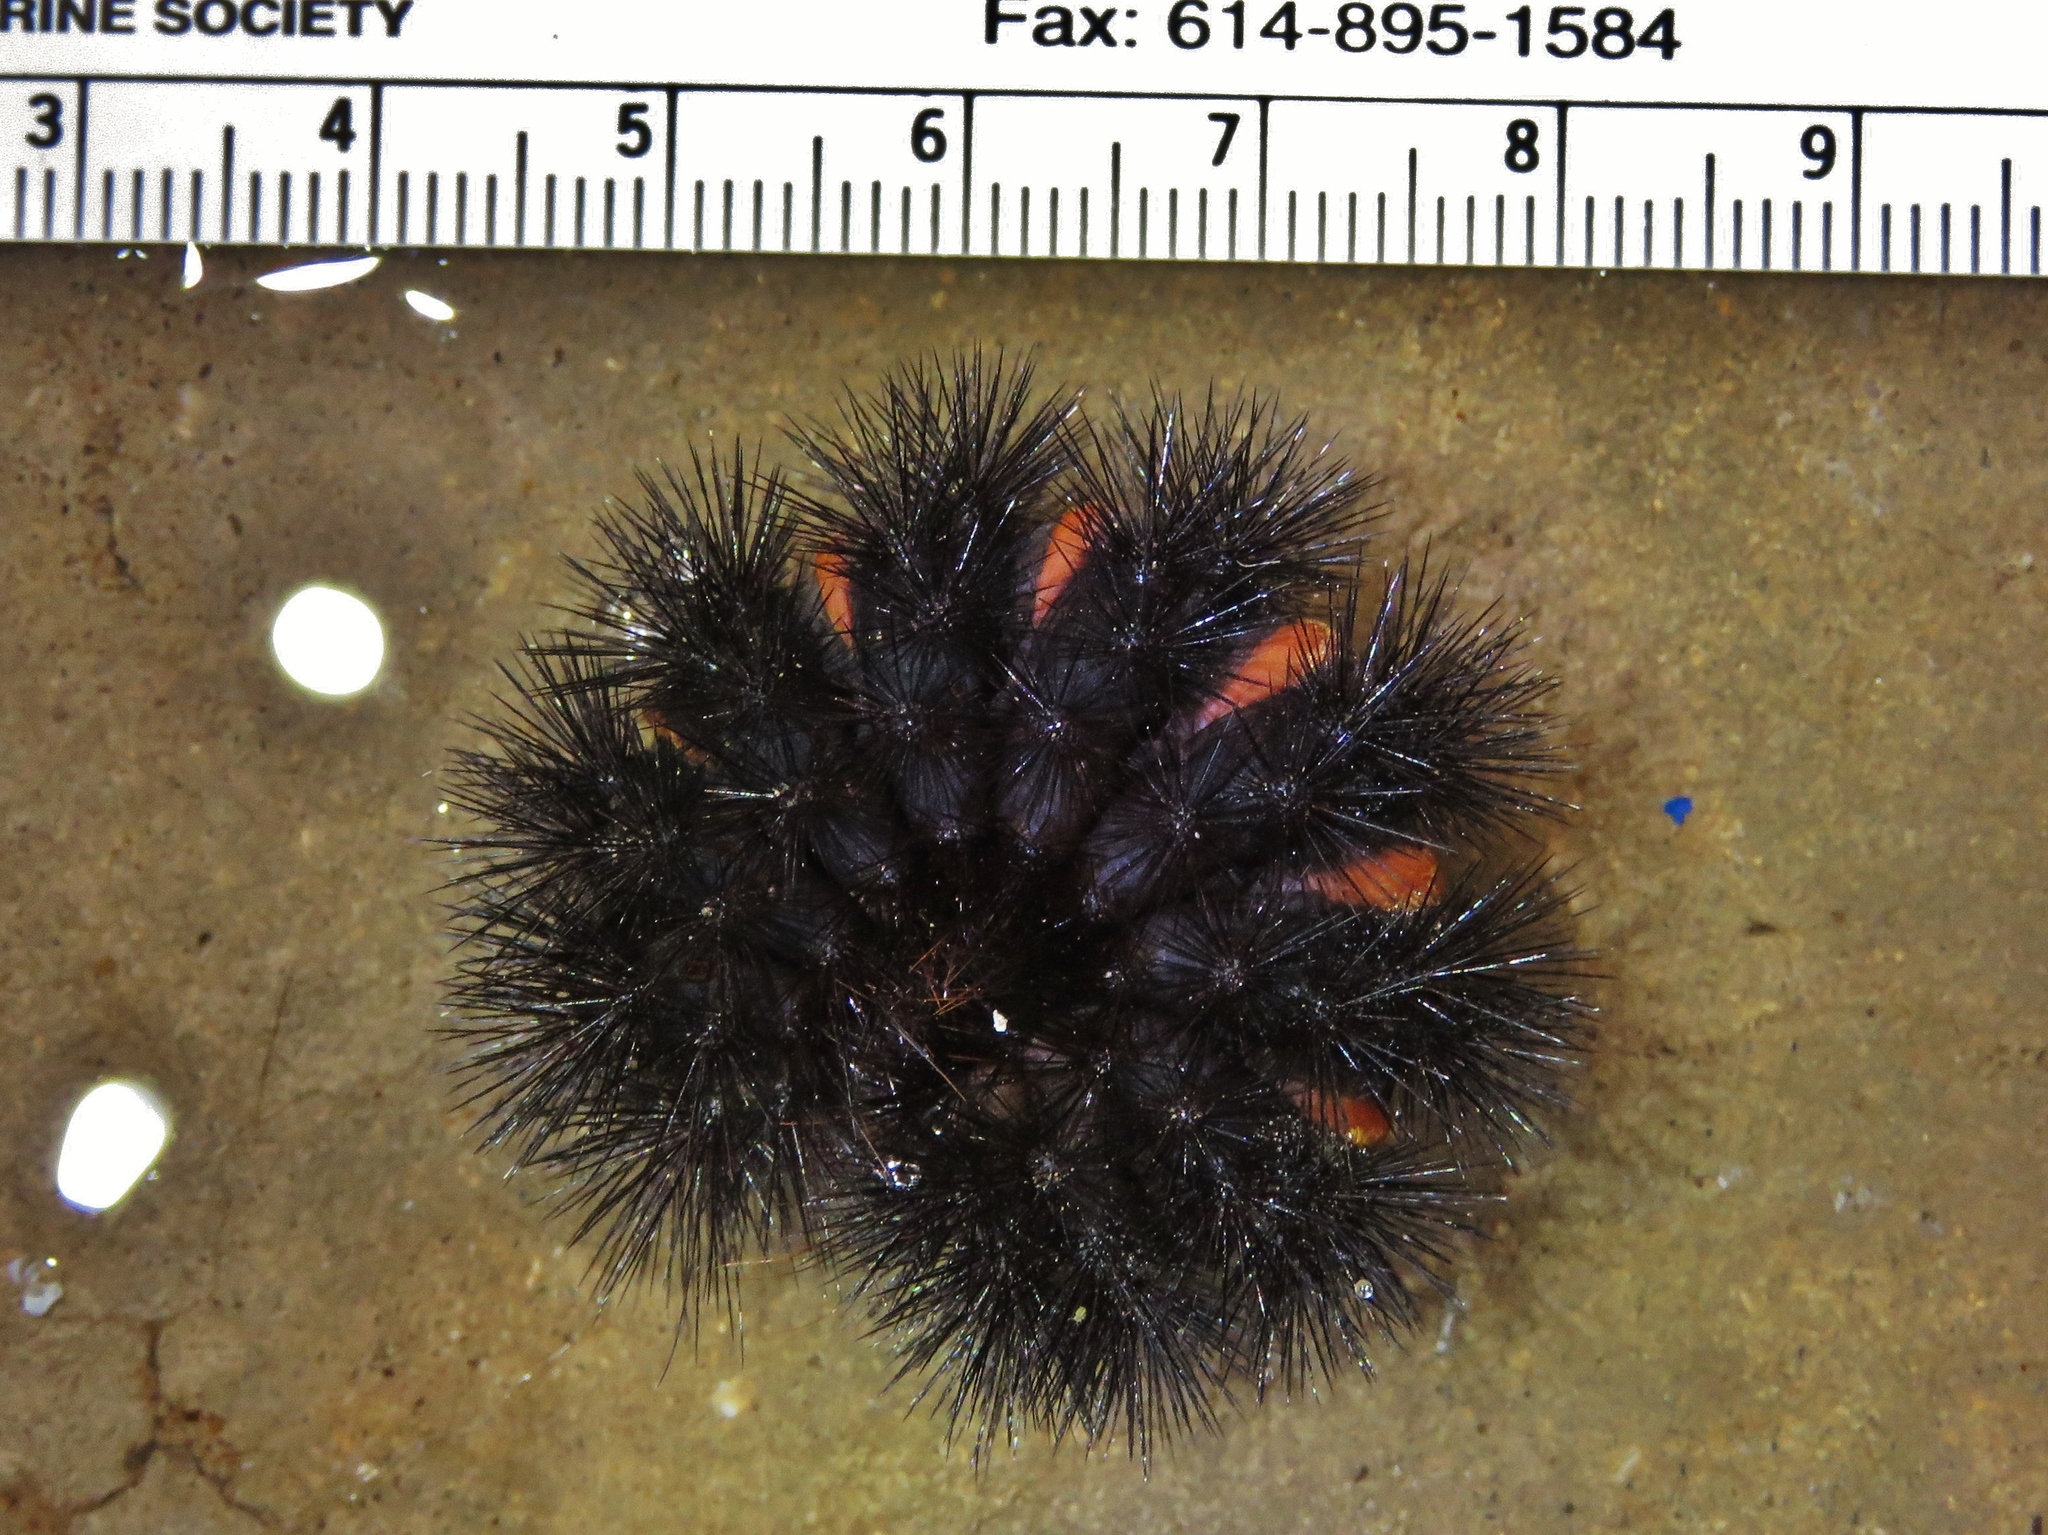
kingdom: Animalia
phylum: Arthropoda
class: Insecta
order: Lepidoptera
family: Erebidae
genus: Hypercompe
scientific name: Hypercompe scribonia
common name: Giant leopard moth
